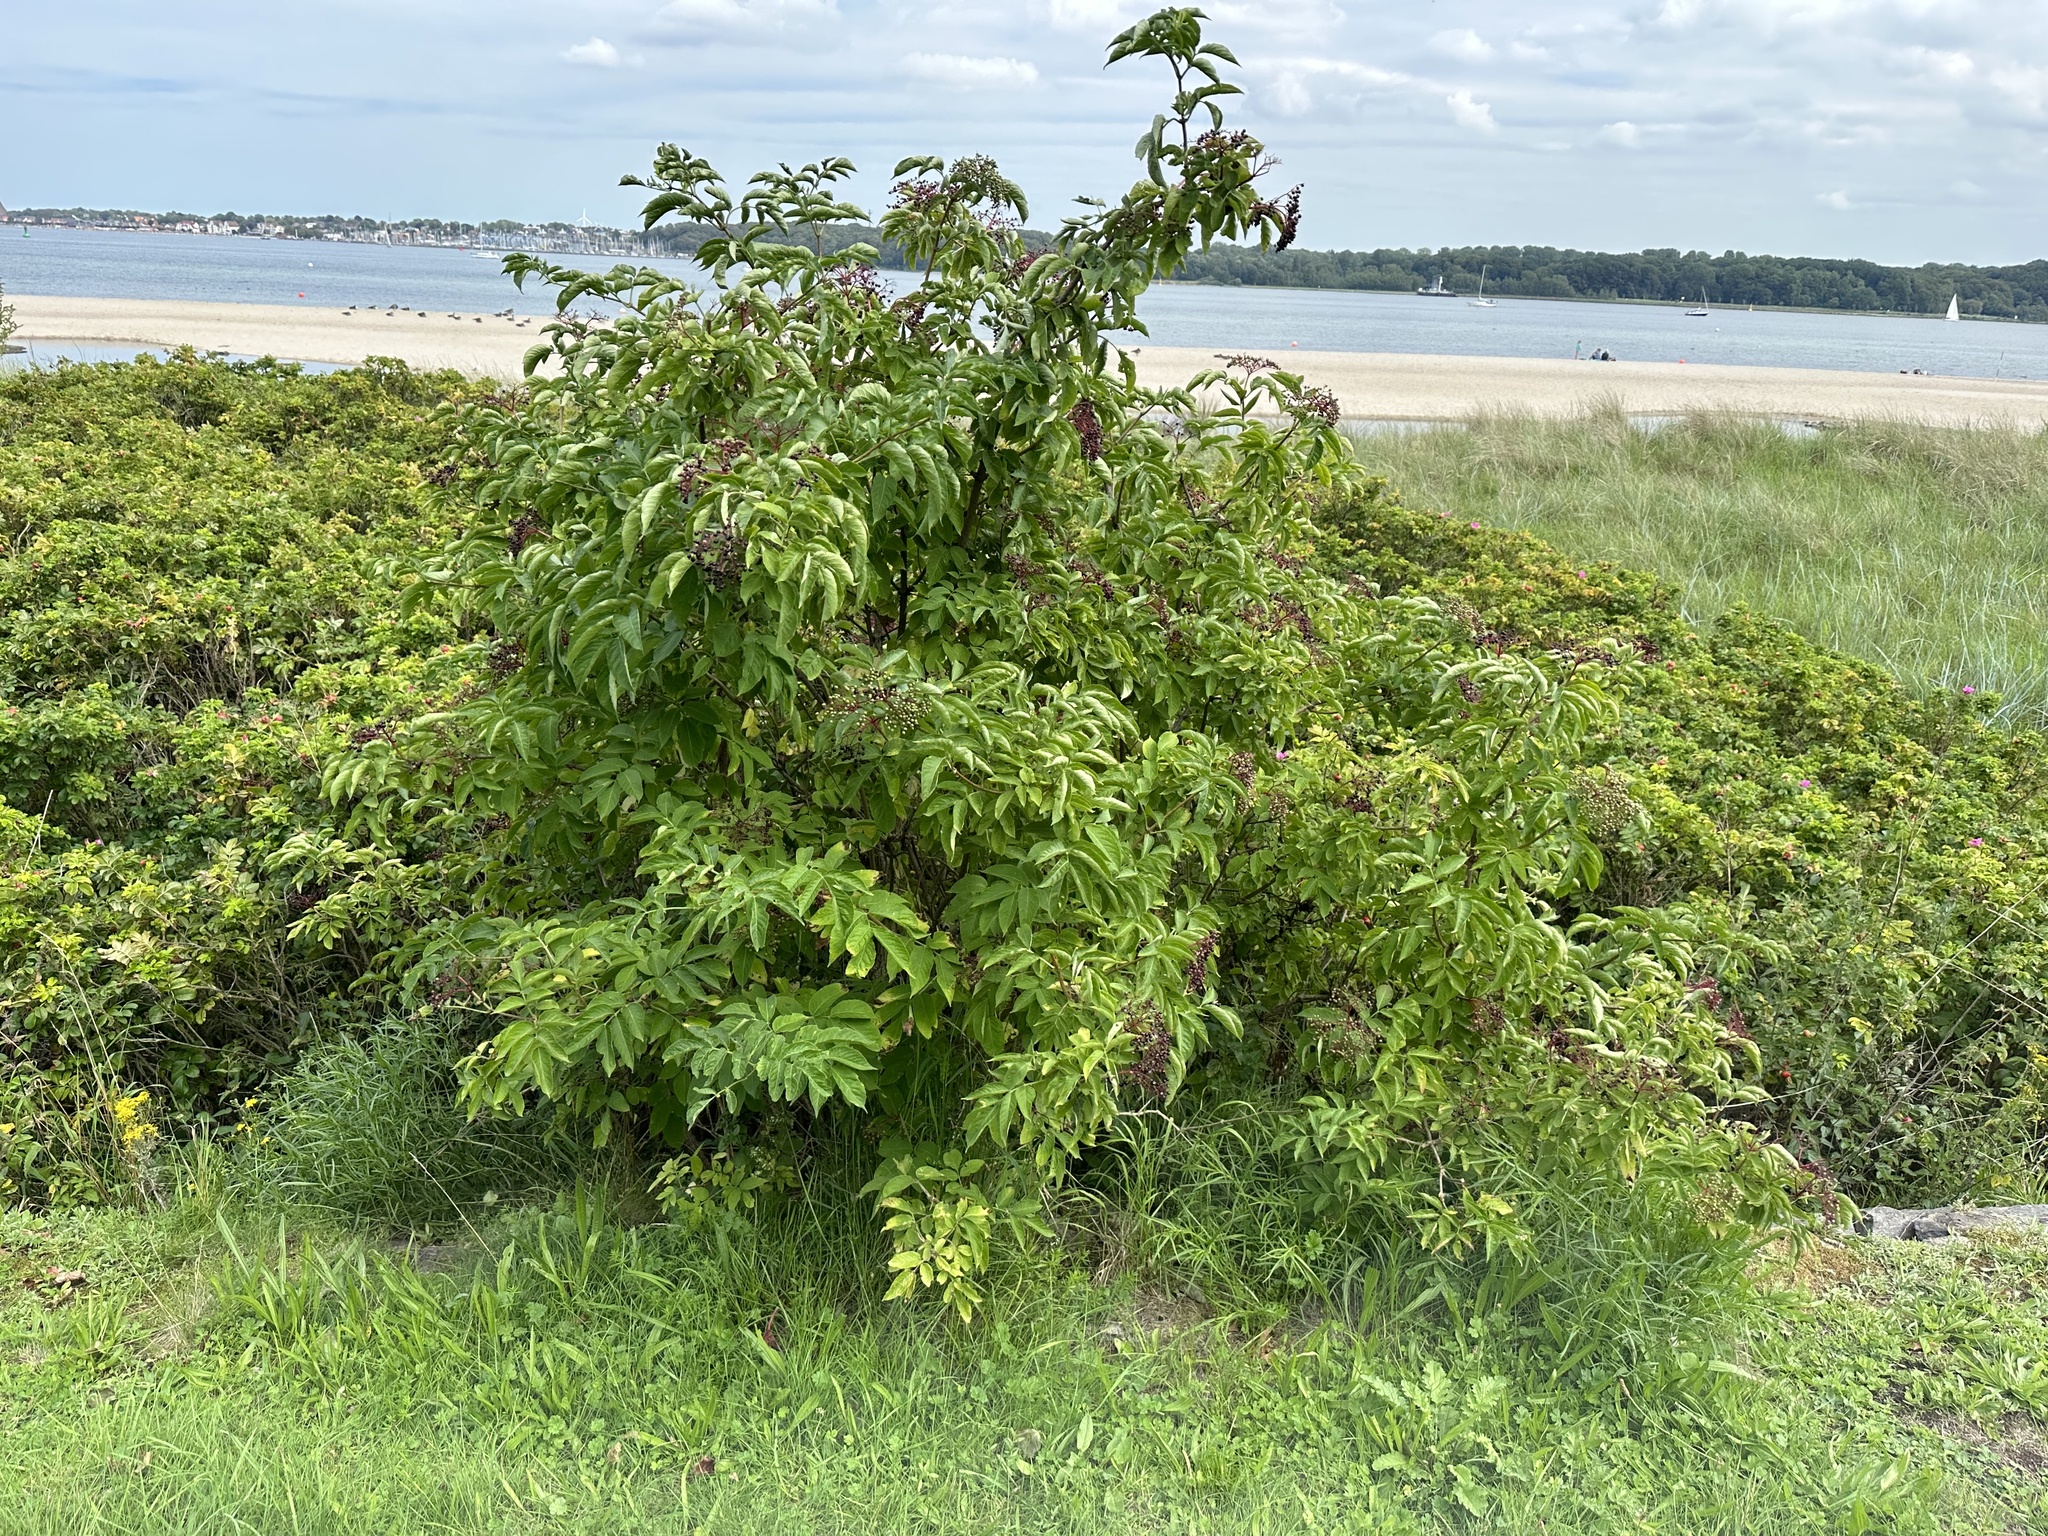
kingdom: Plantae
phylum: Tracheophyta
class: Magnoliopsida
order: Dipsacales
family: Viburnaceae
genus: Sambucus
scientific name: Sambucus nigra
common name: Elder
